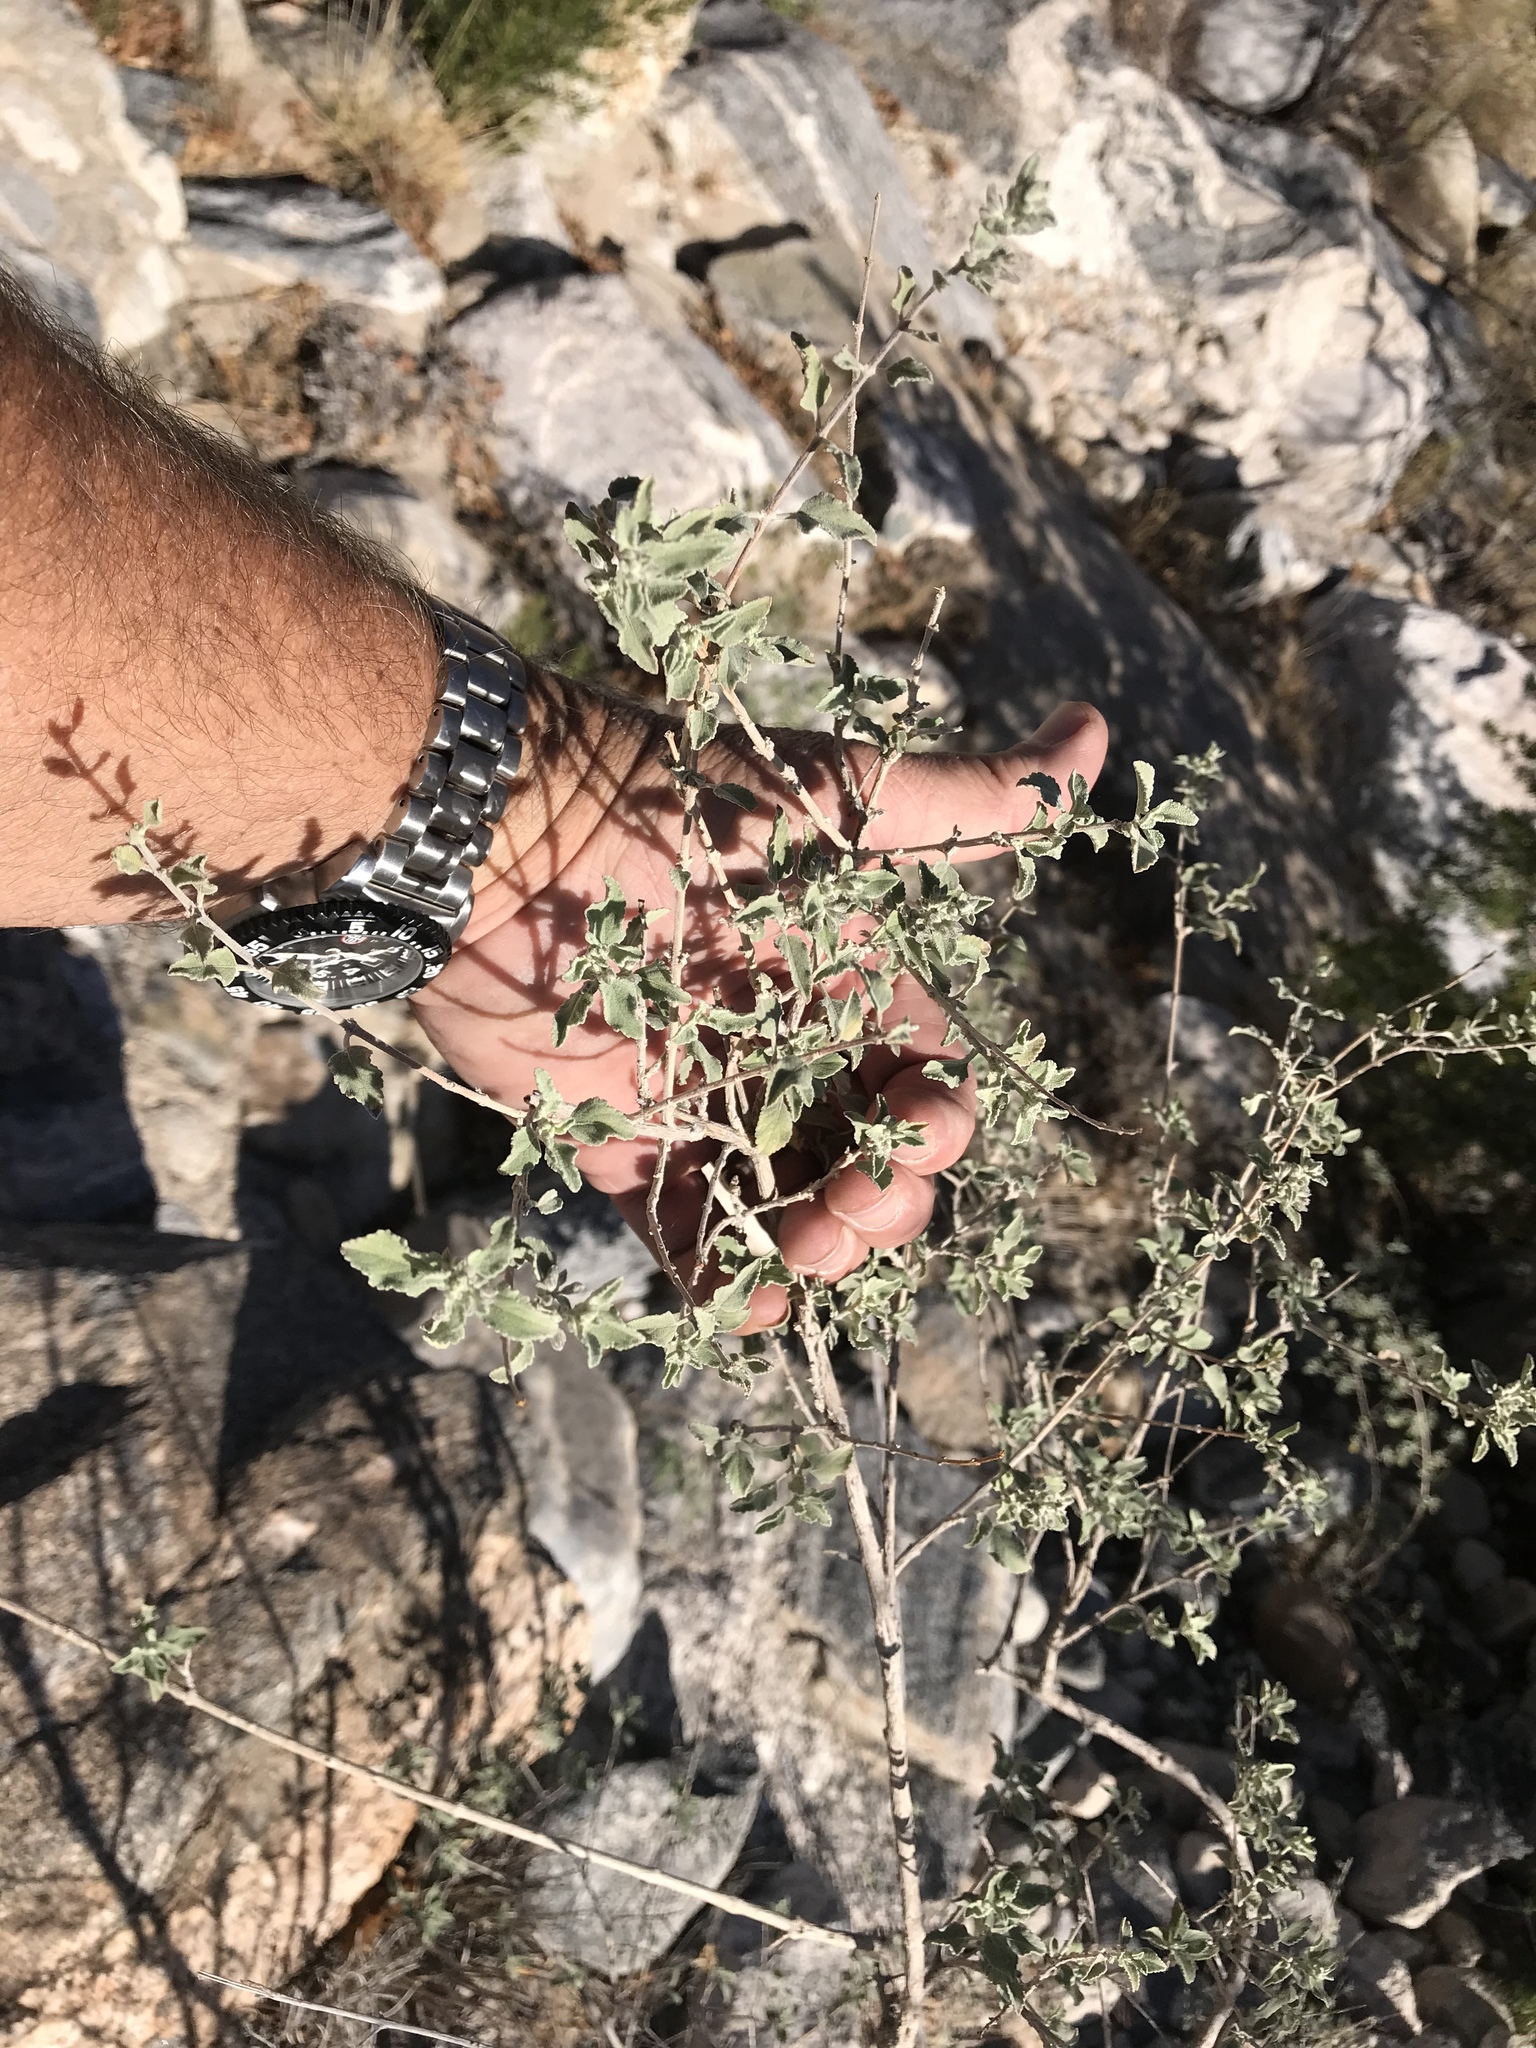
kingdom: Plantae
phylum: Tracheophyta
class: Magnoliopsida
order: Lamiales
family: Lamiaceae
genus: Condea
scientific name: Condea emoryi
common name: Chia
